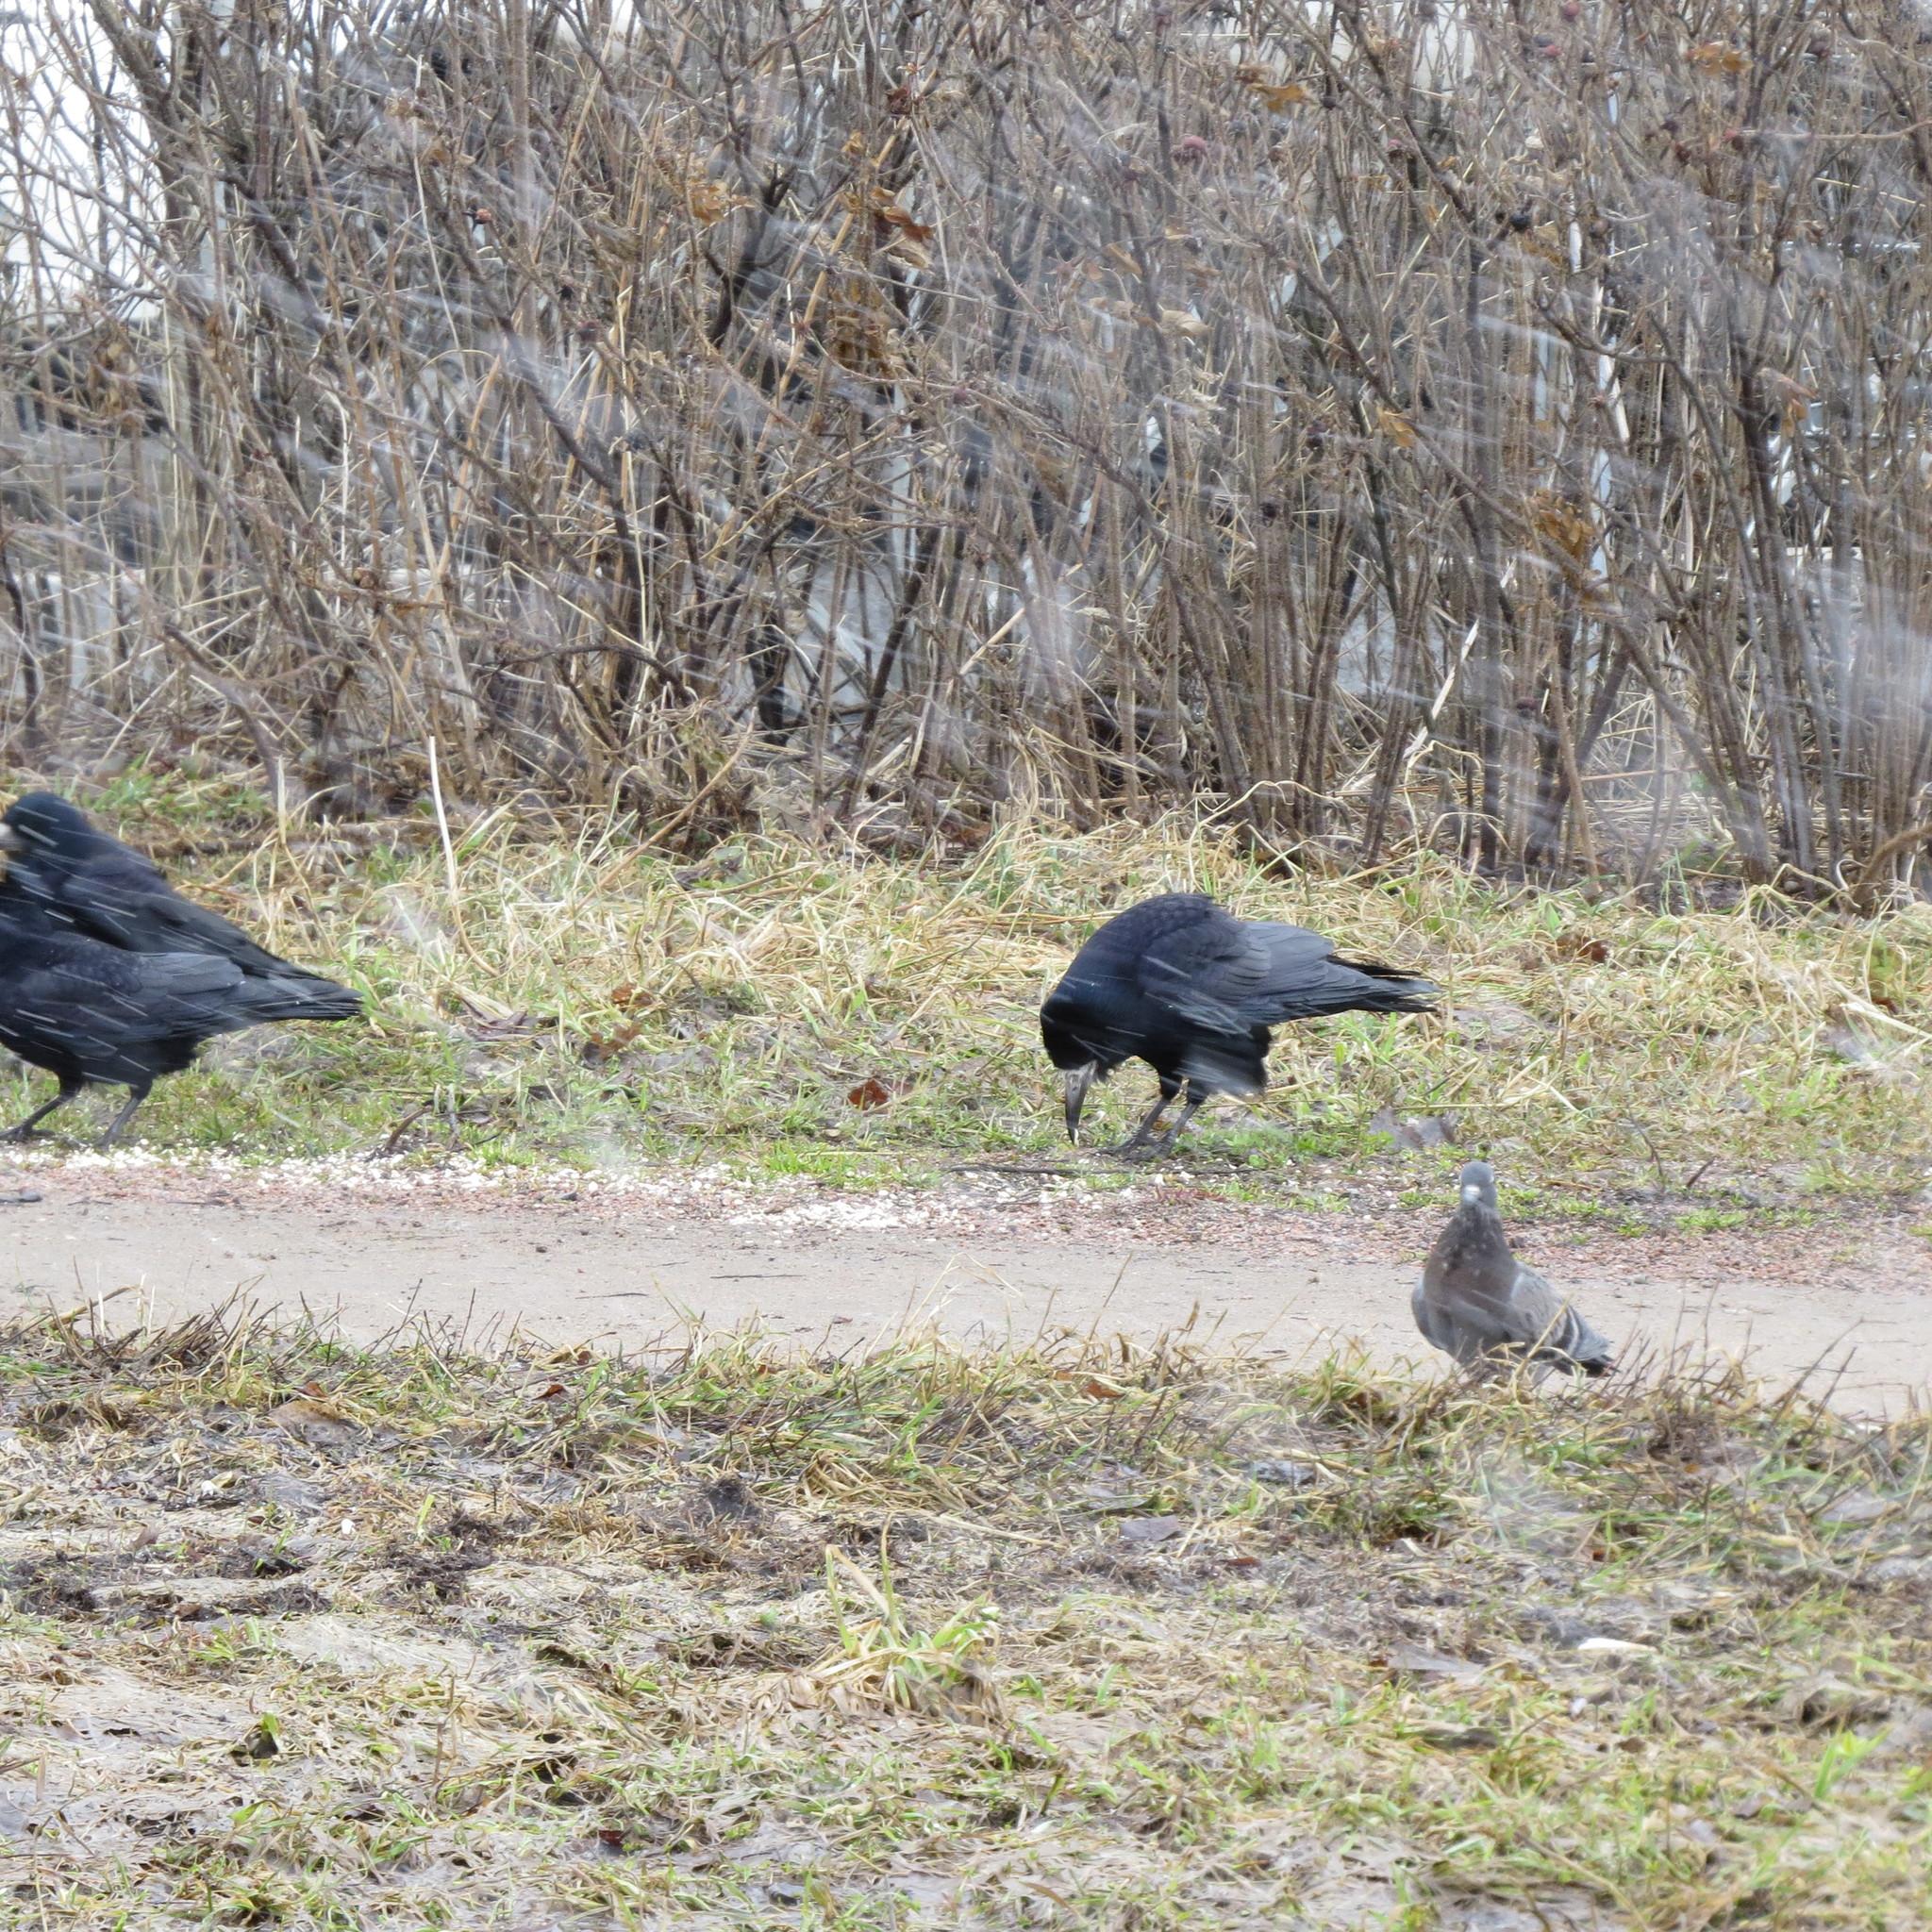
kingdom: Animalia
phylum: Chordata
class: Aves
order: Passeriformes
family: Corvidae
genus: Corvus
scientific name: Corvus frugilegus
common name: Rook
